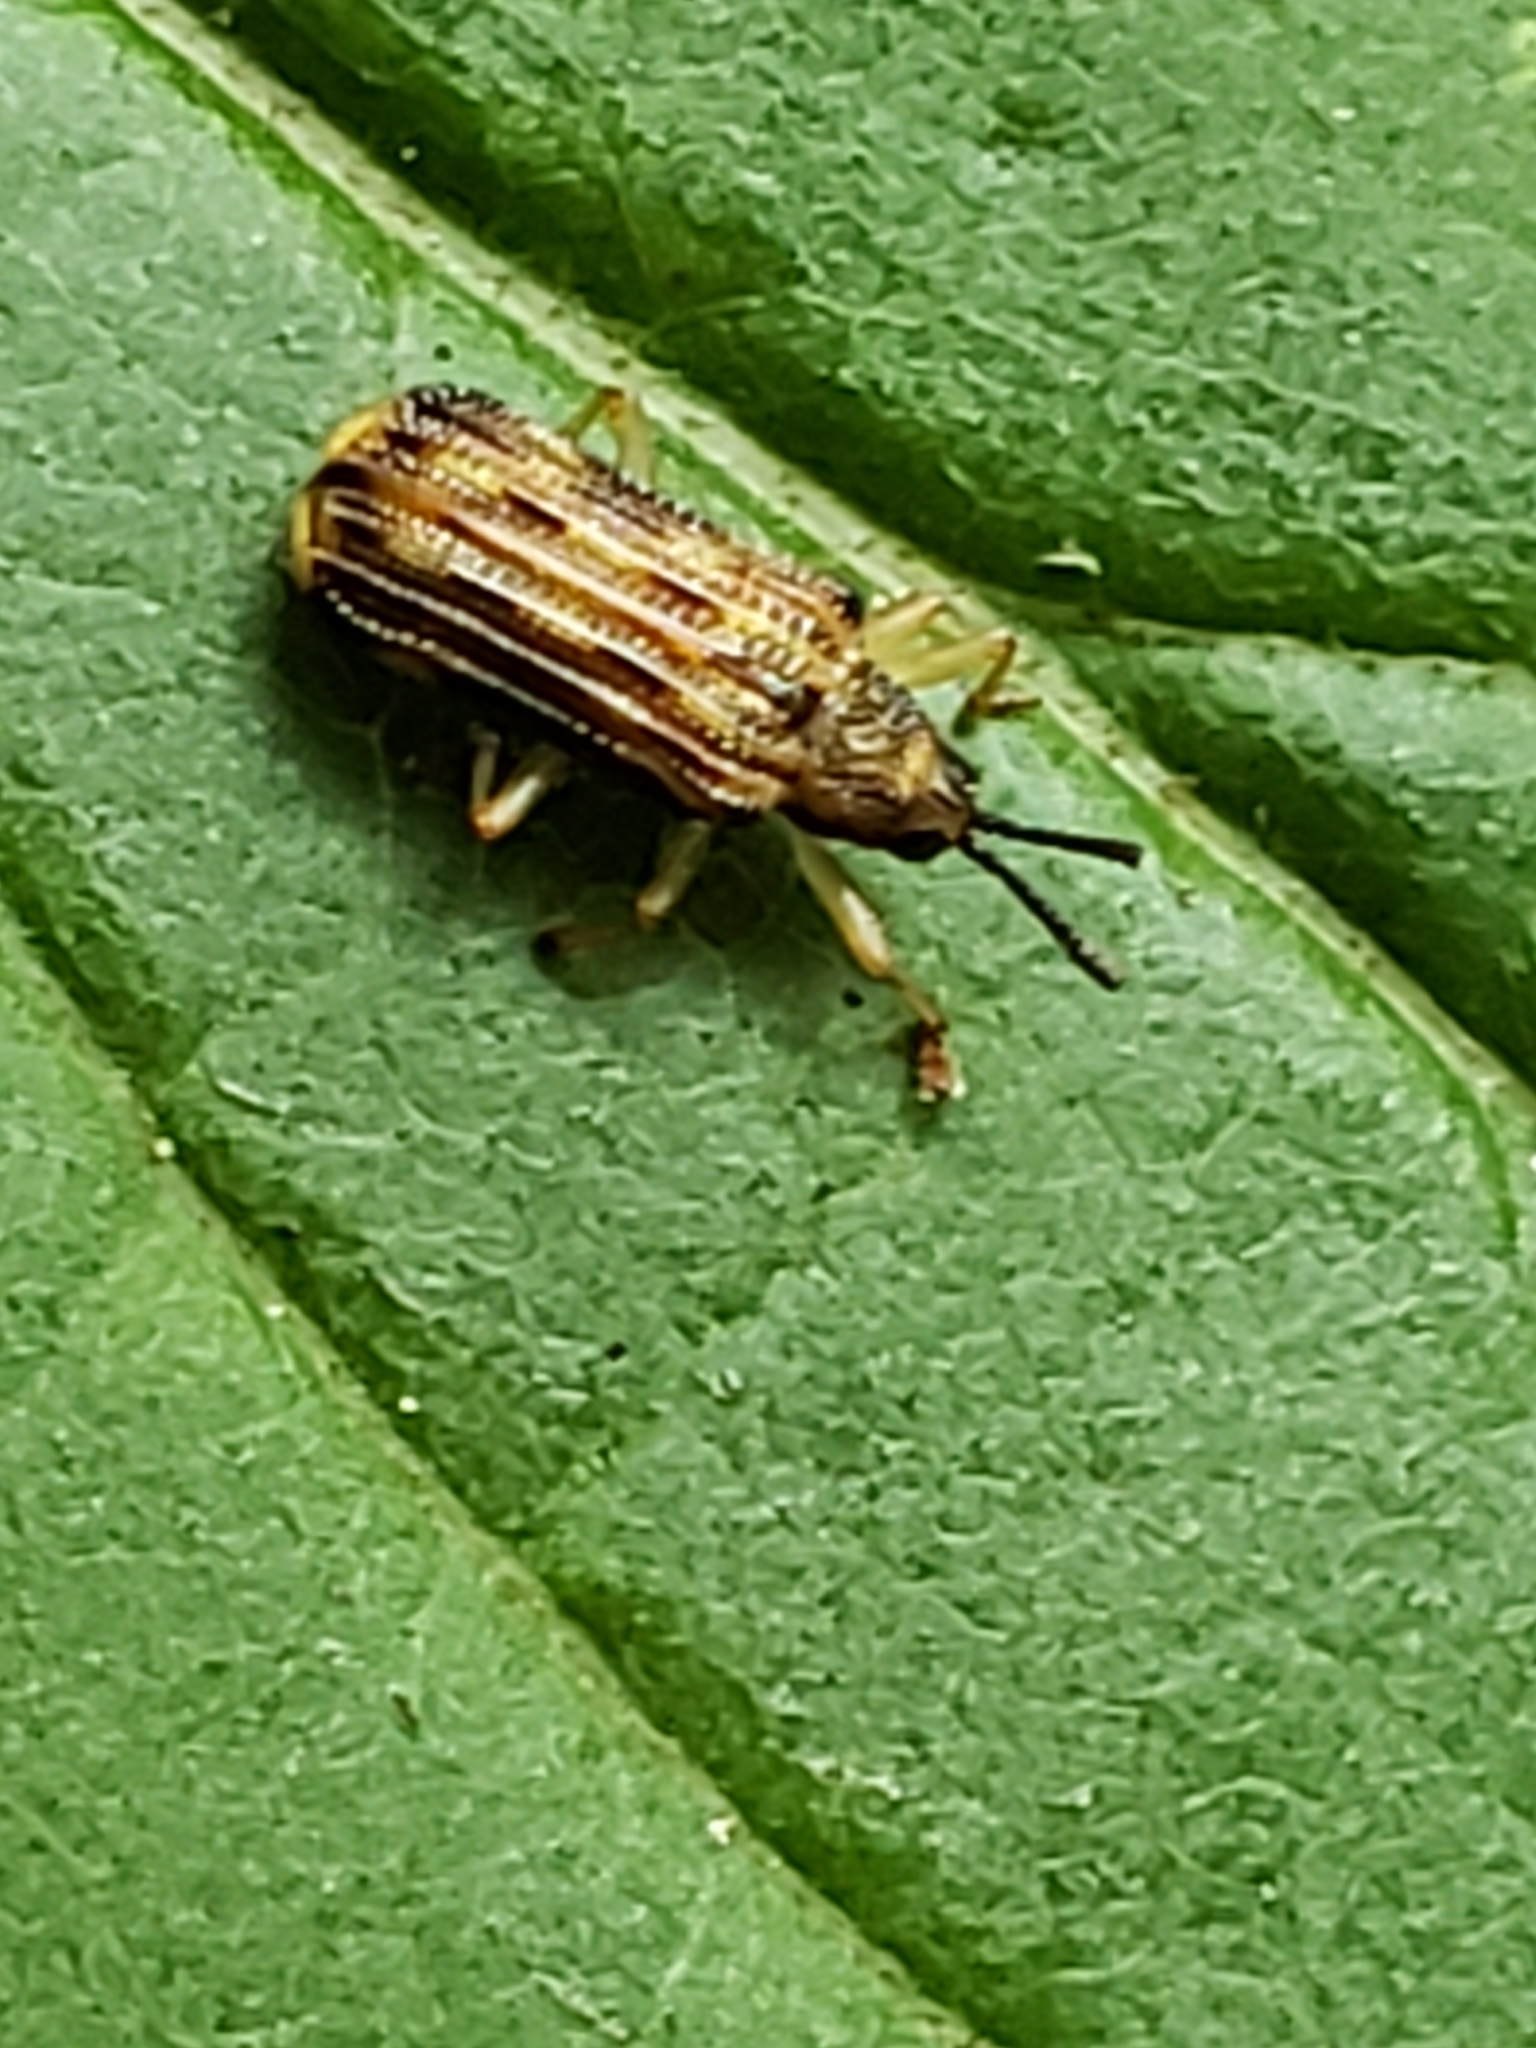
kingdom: Animalia
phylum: Arthropoda
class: Insecta
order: Coleoptera
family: Chrysomelidae
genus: Sumitrosis
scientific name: Sumitrosis inaequalis
